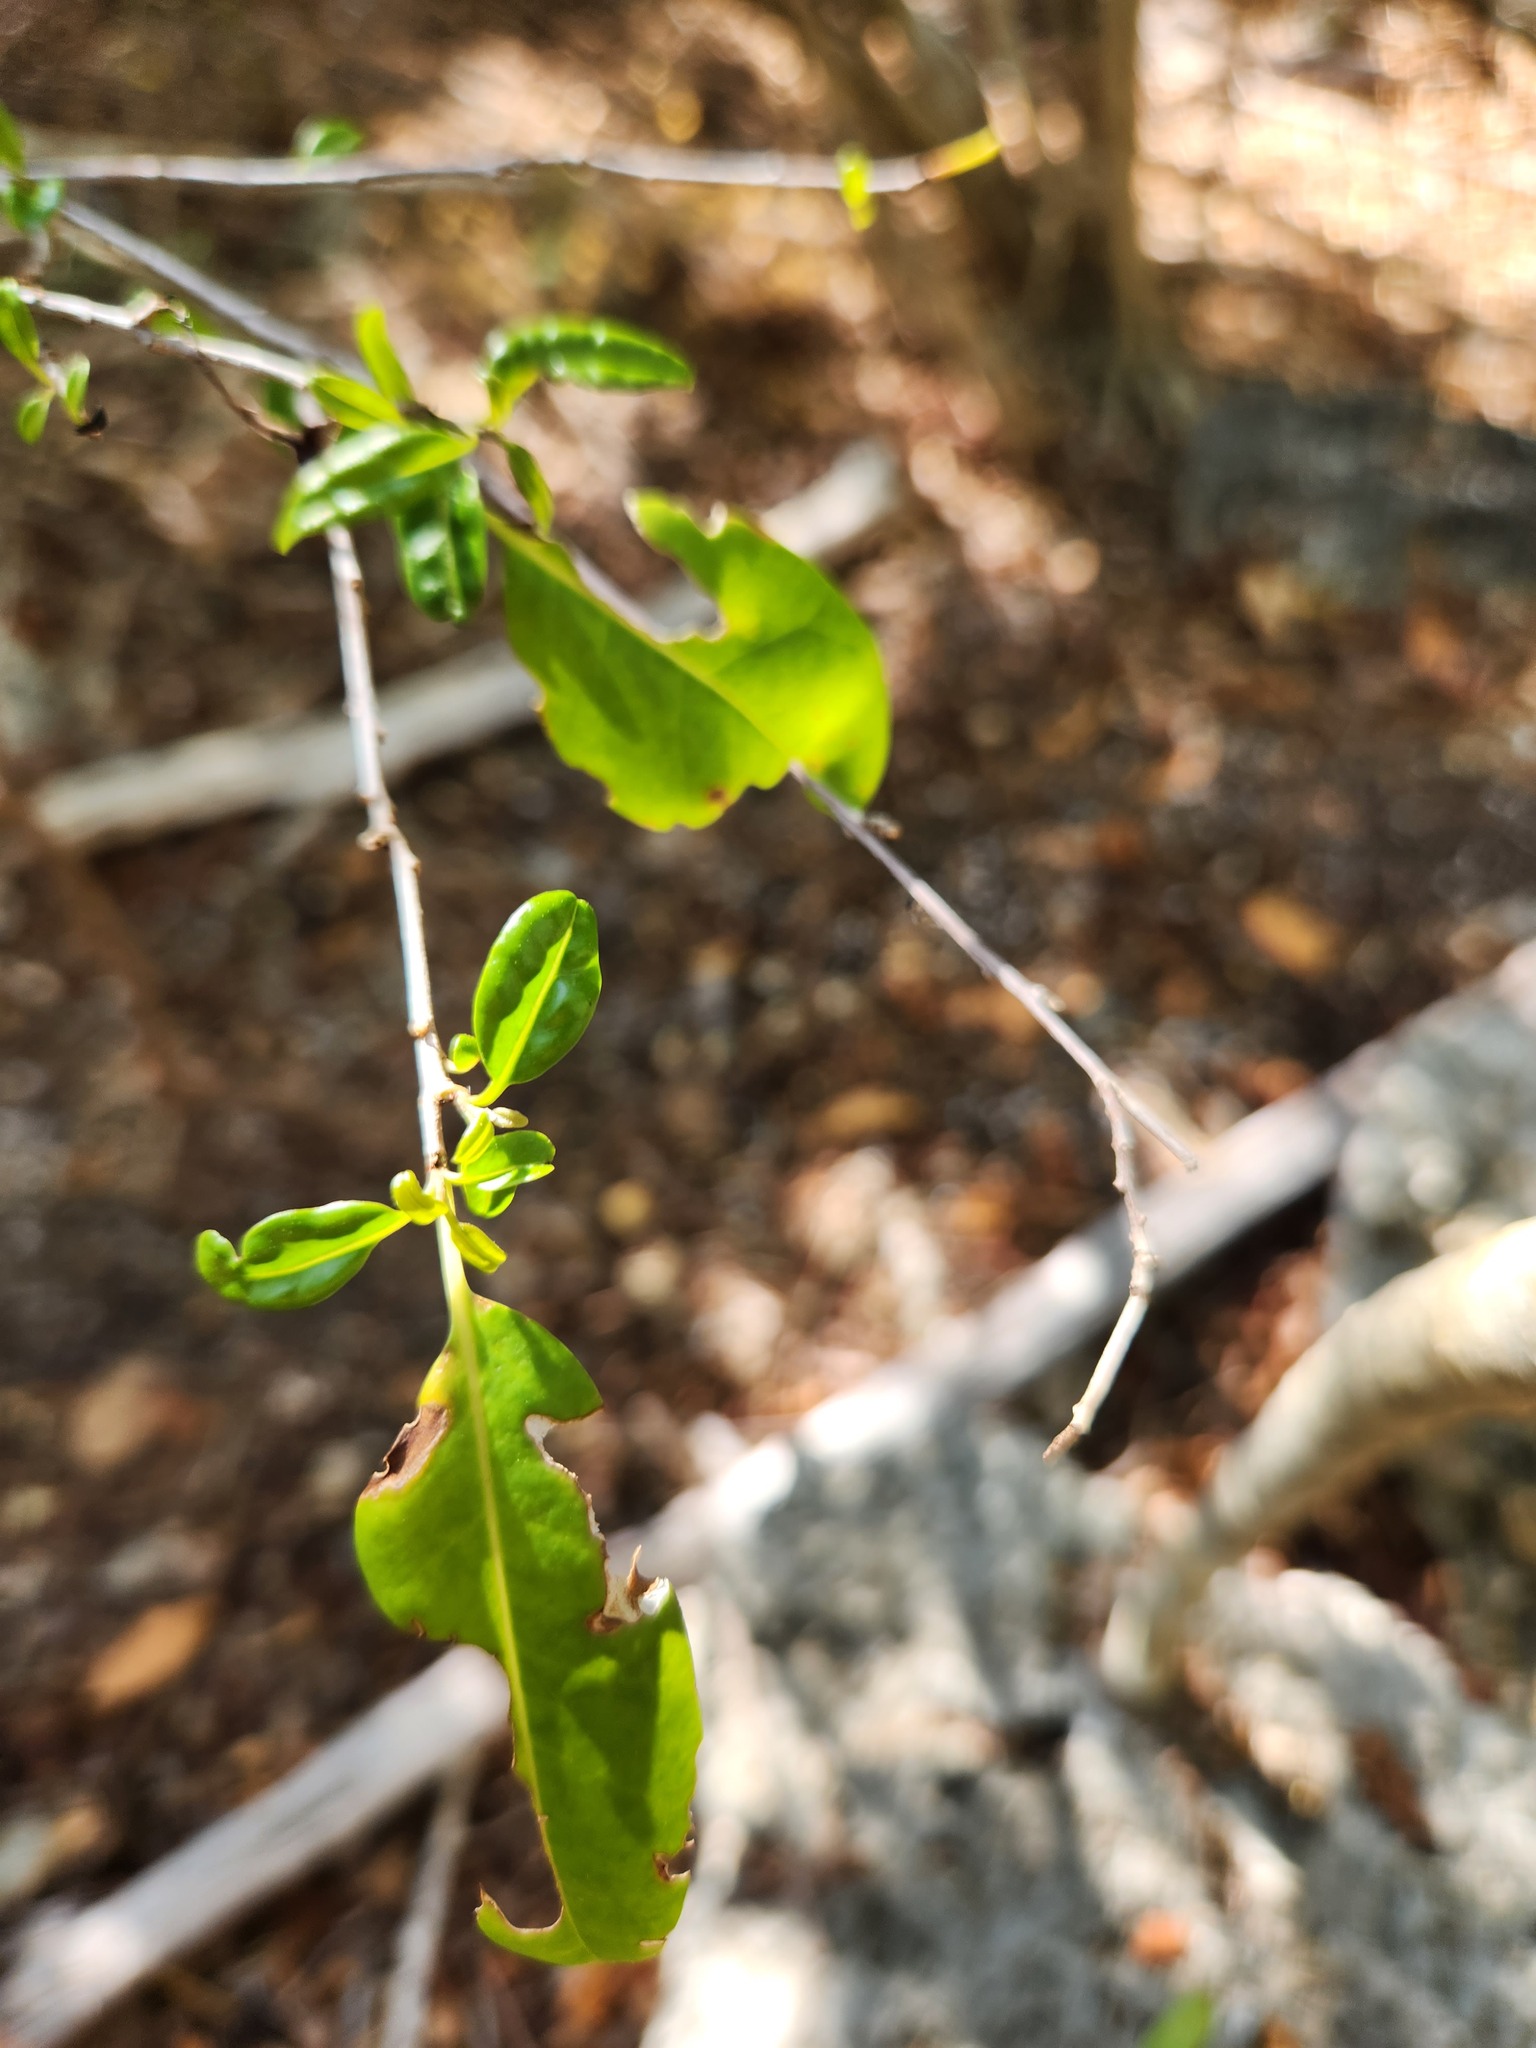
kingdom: Plantae
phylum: Tracheophyta
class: Magnoliopsida
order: Caryophyllales
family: Nyctaginaceae
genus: Guapira
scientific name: Guapira discolor
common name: Beeftree
